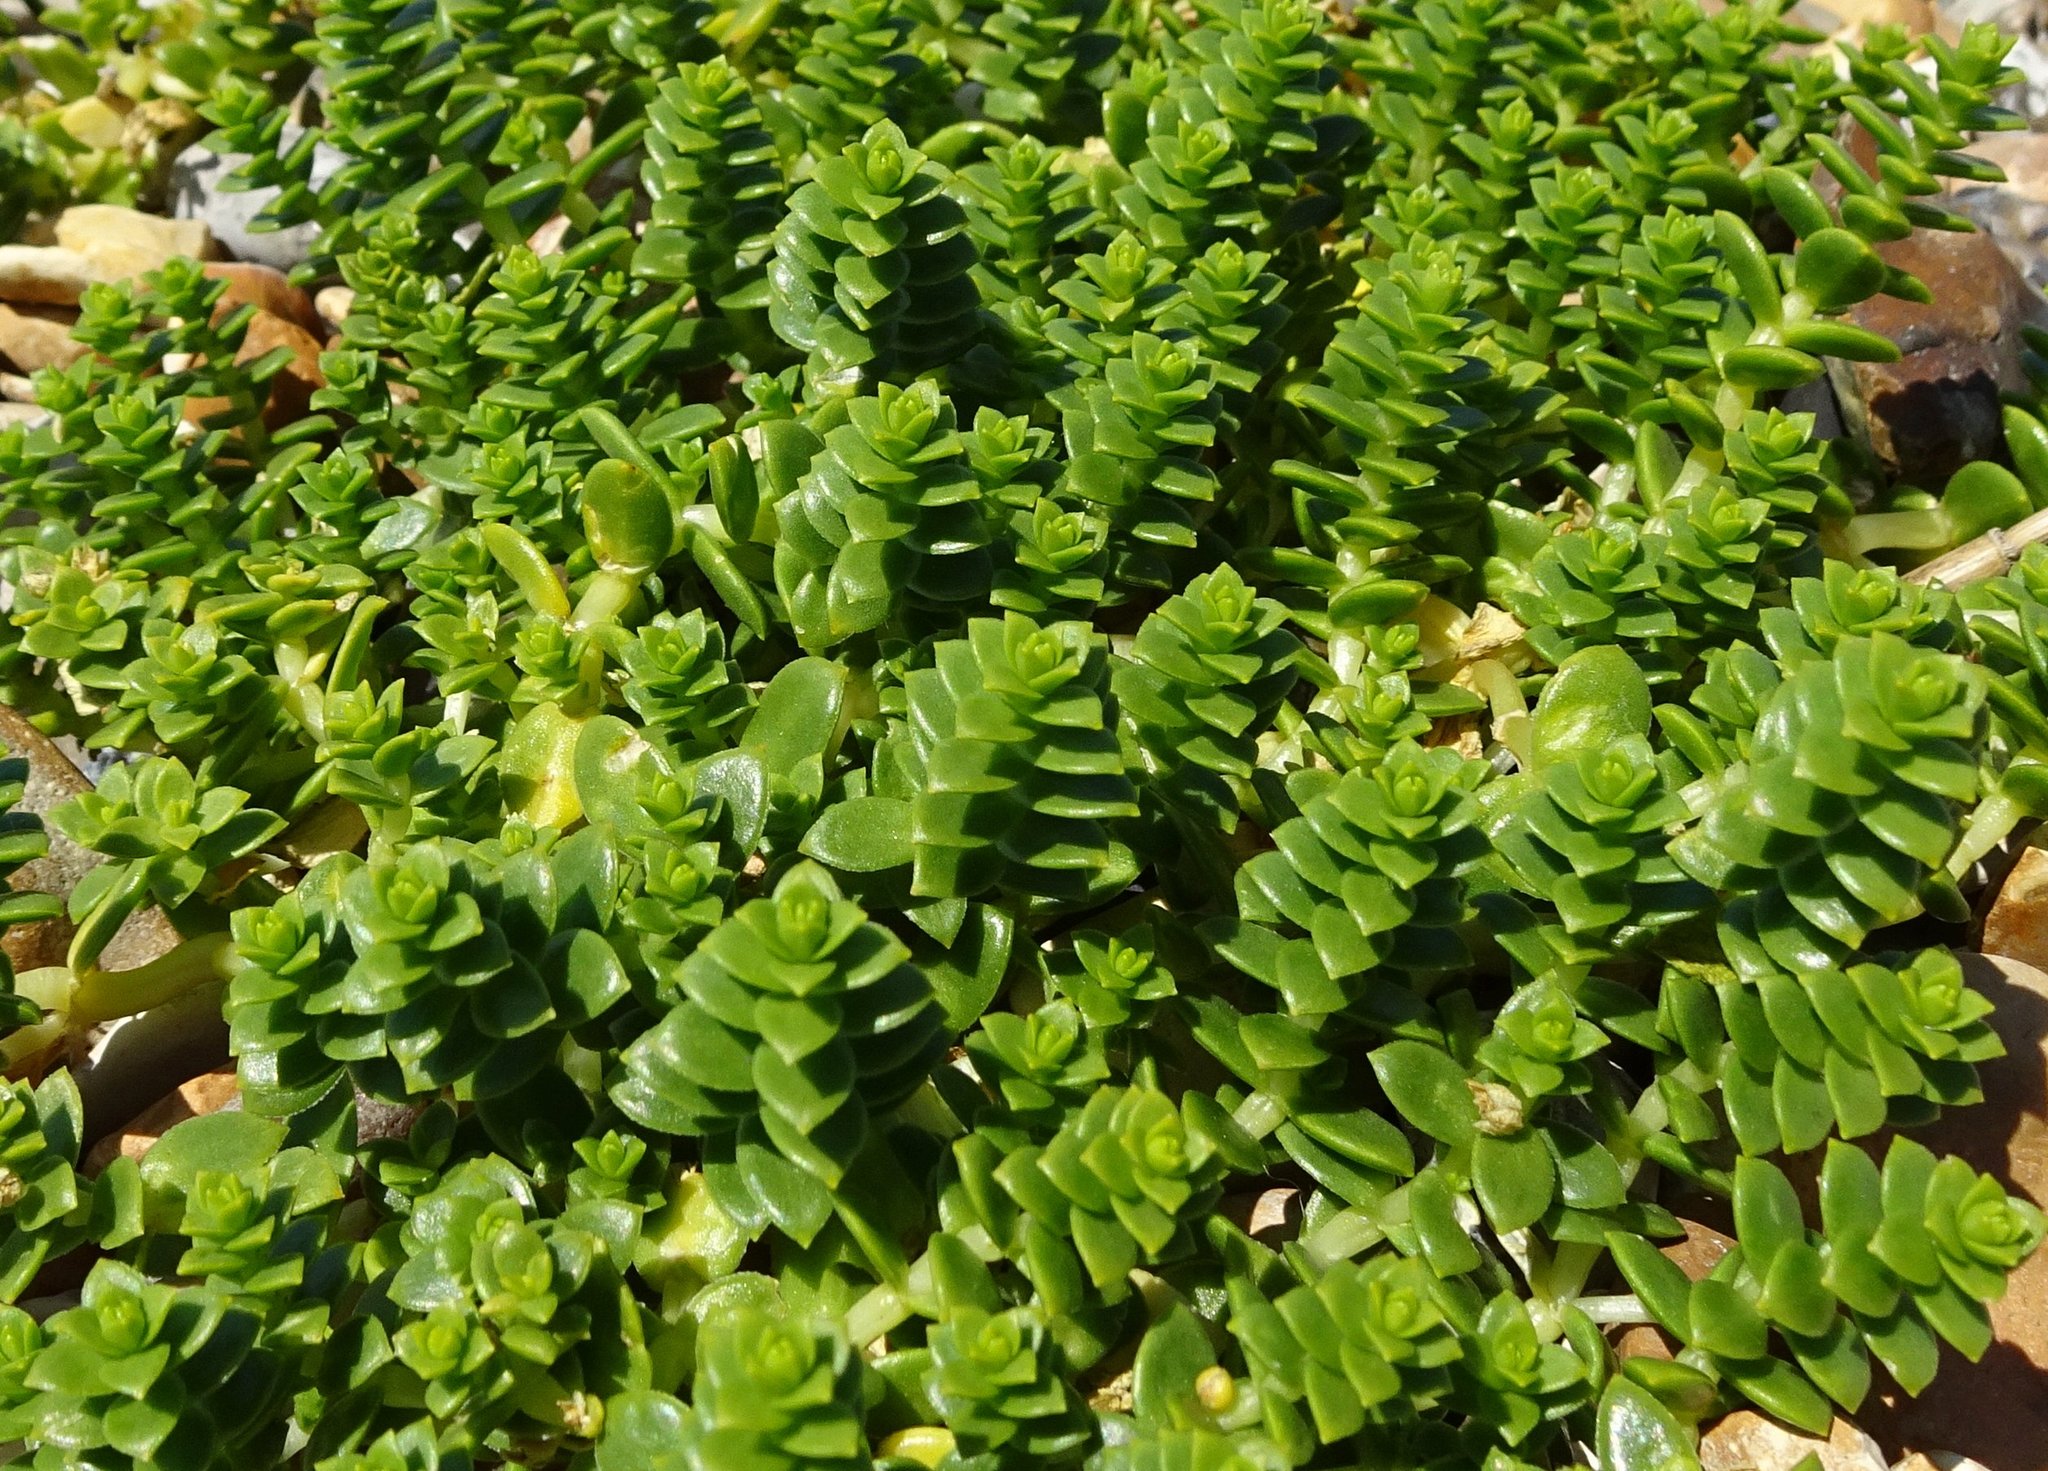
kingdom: Plantae
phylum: Tracheophyta
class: Magnoliopsida
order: Caryophyllales
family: Caryophyllaceae
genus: Honckenya
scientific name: Honckenya peploides
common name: Sea sandwort
